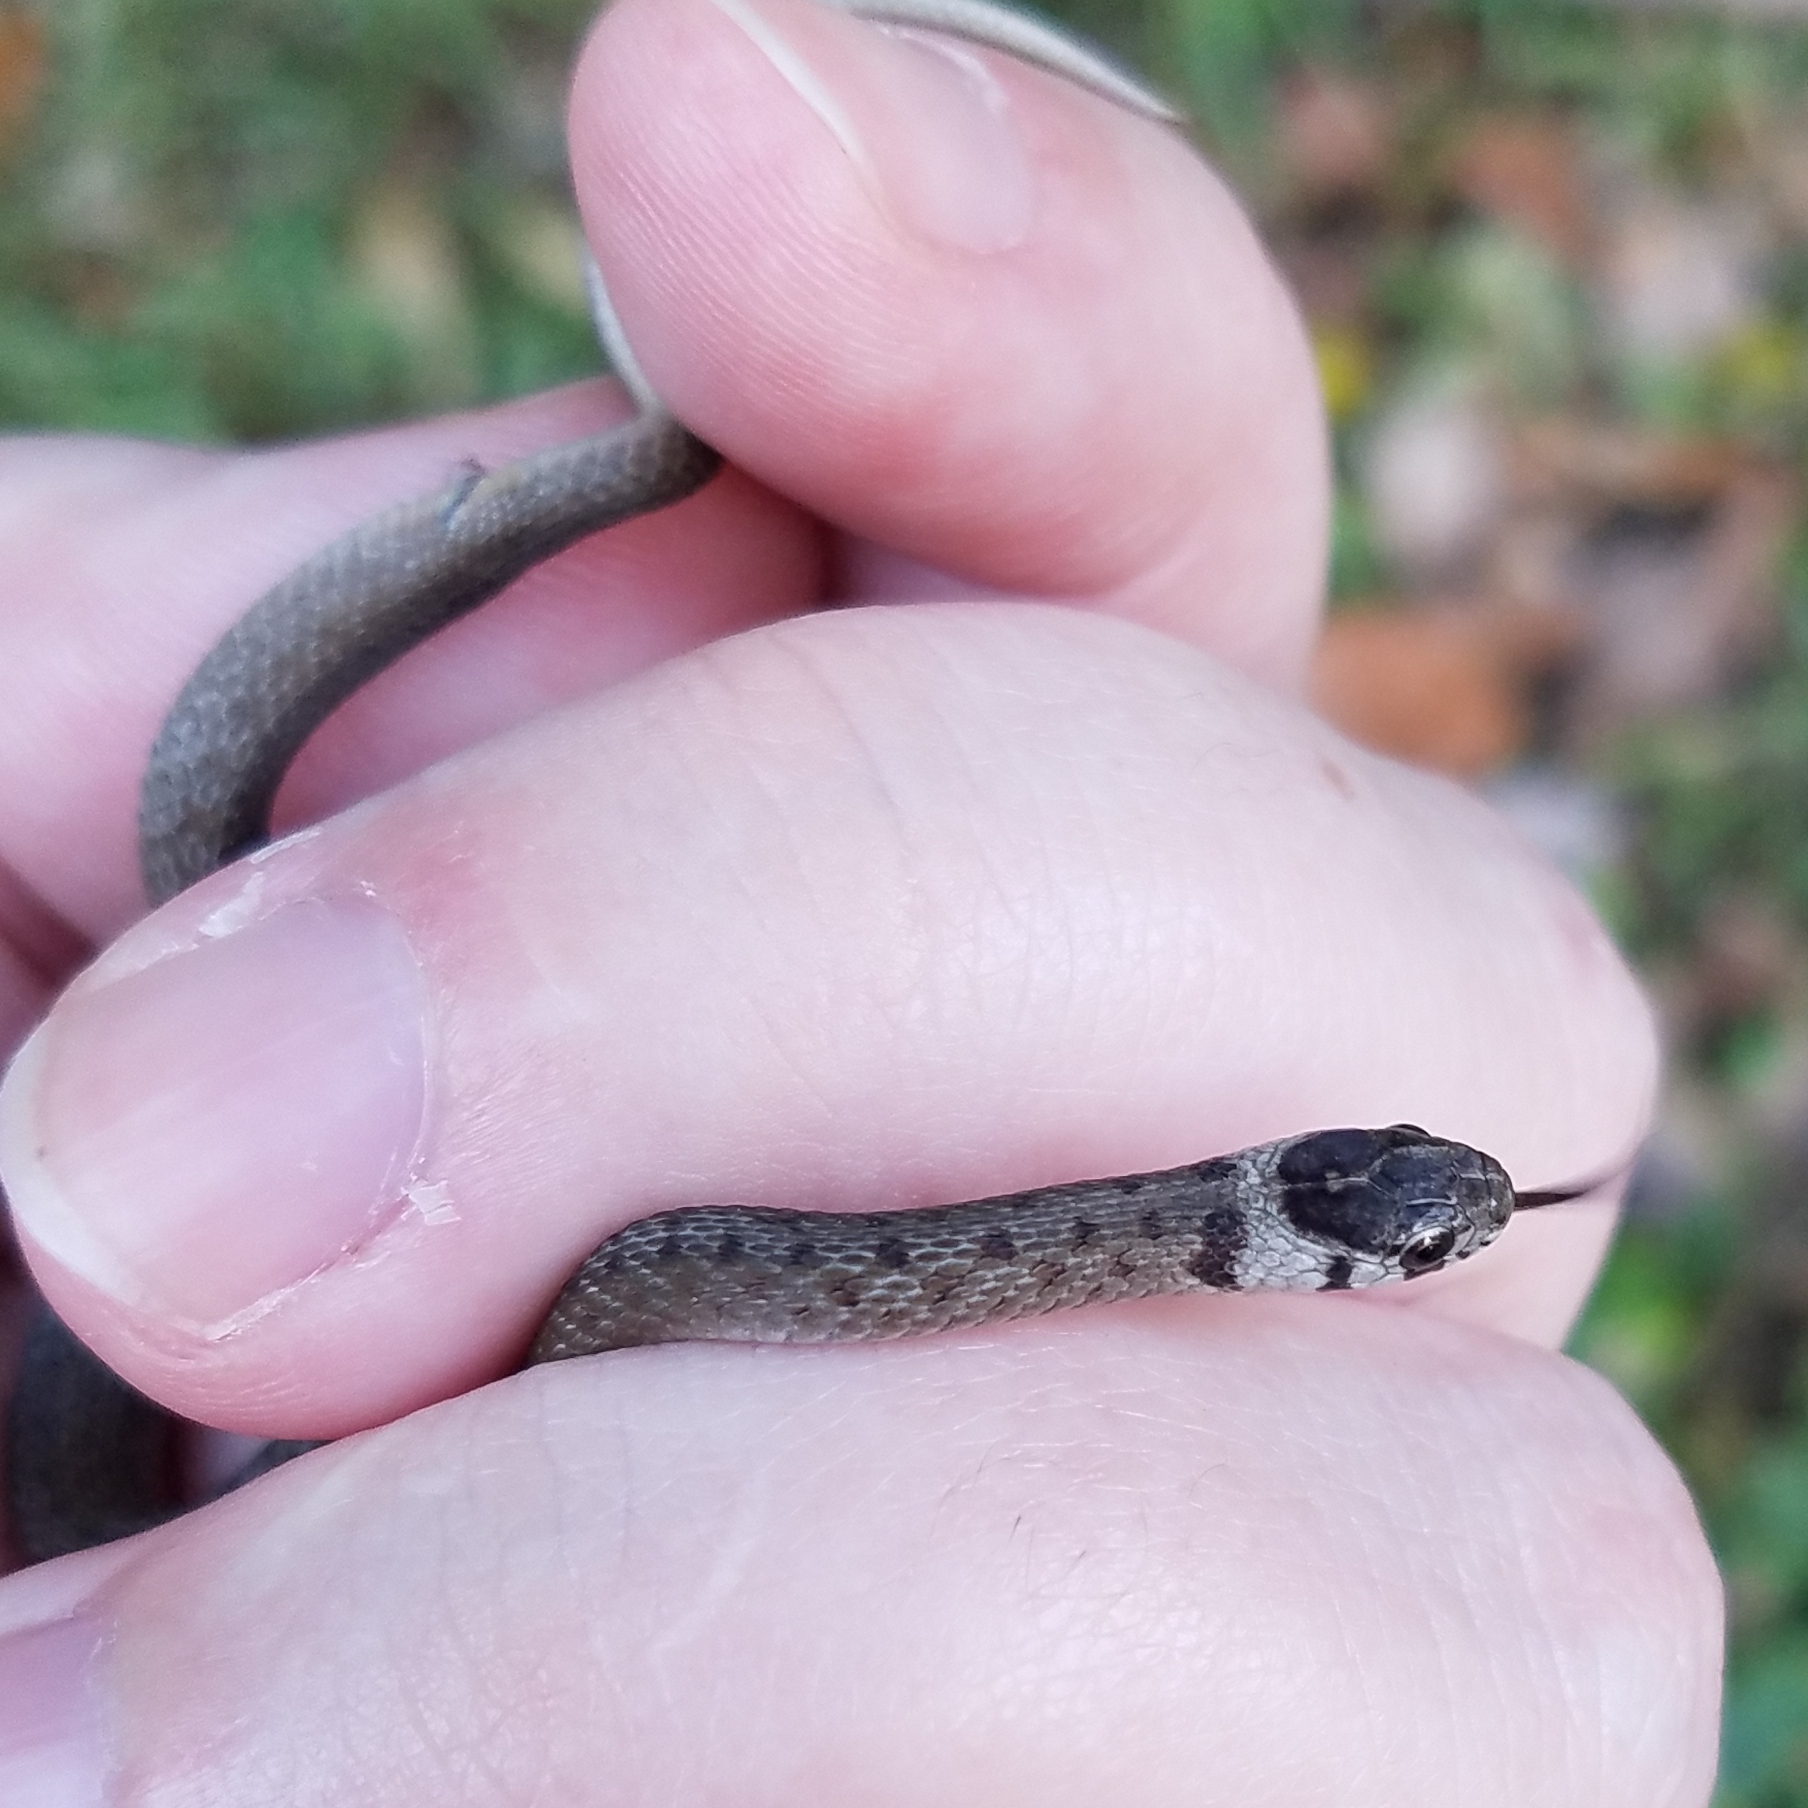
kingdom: Animalia
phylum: Chordata
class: Squamata
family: Colubridae
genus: Storeria
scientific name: Storeria dekayi
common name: (dekay’s) brown snake
